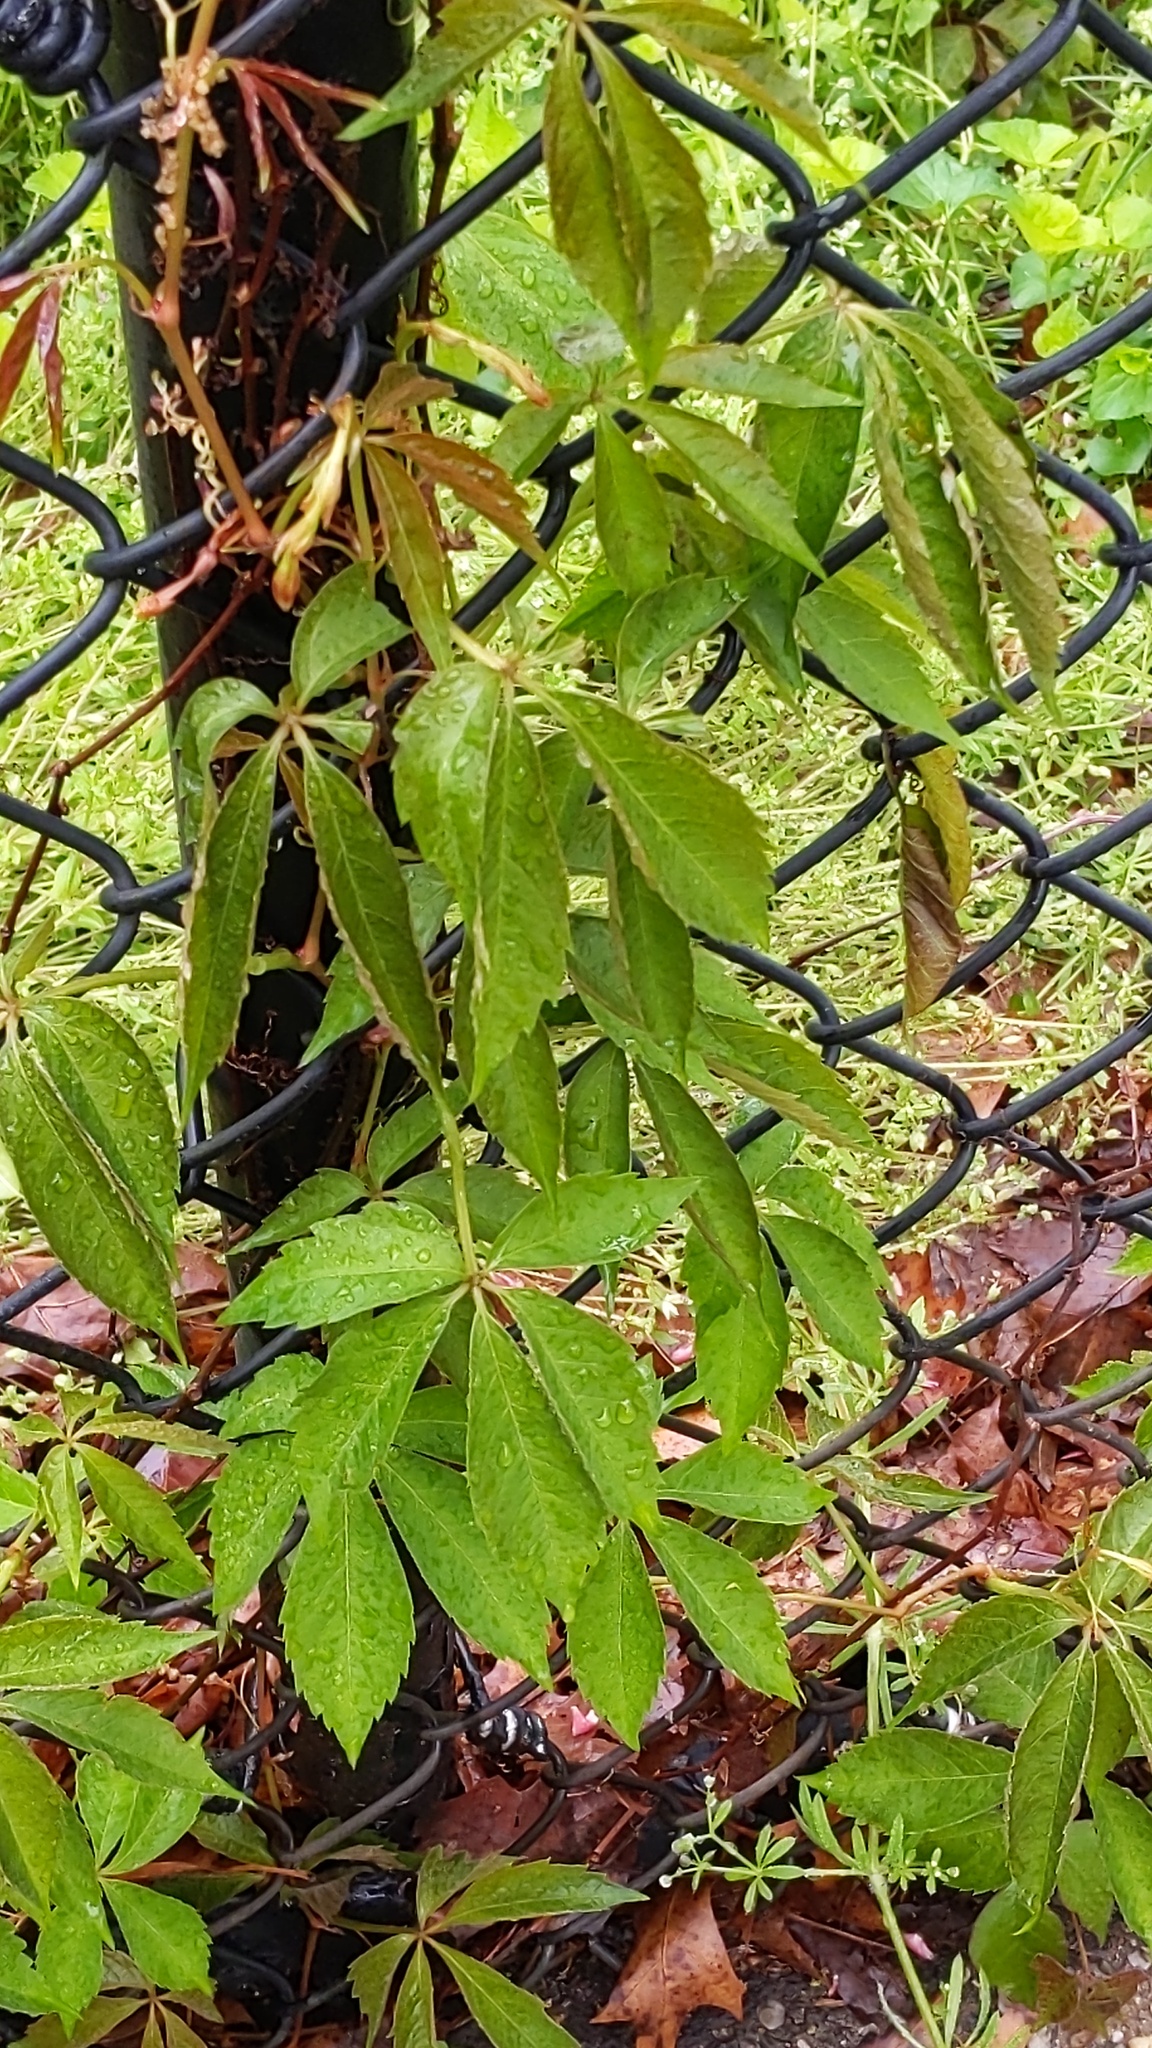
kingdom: Plantae
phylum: Tracheophyta
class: Magnoliopsida
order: Vitales
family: Vitaceae
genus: Parthenocissus
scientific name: Parthenocissus
